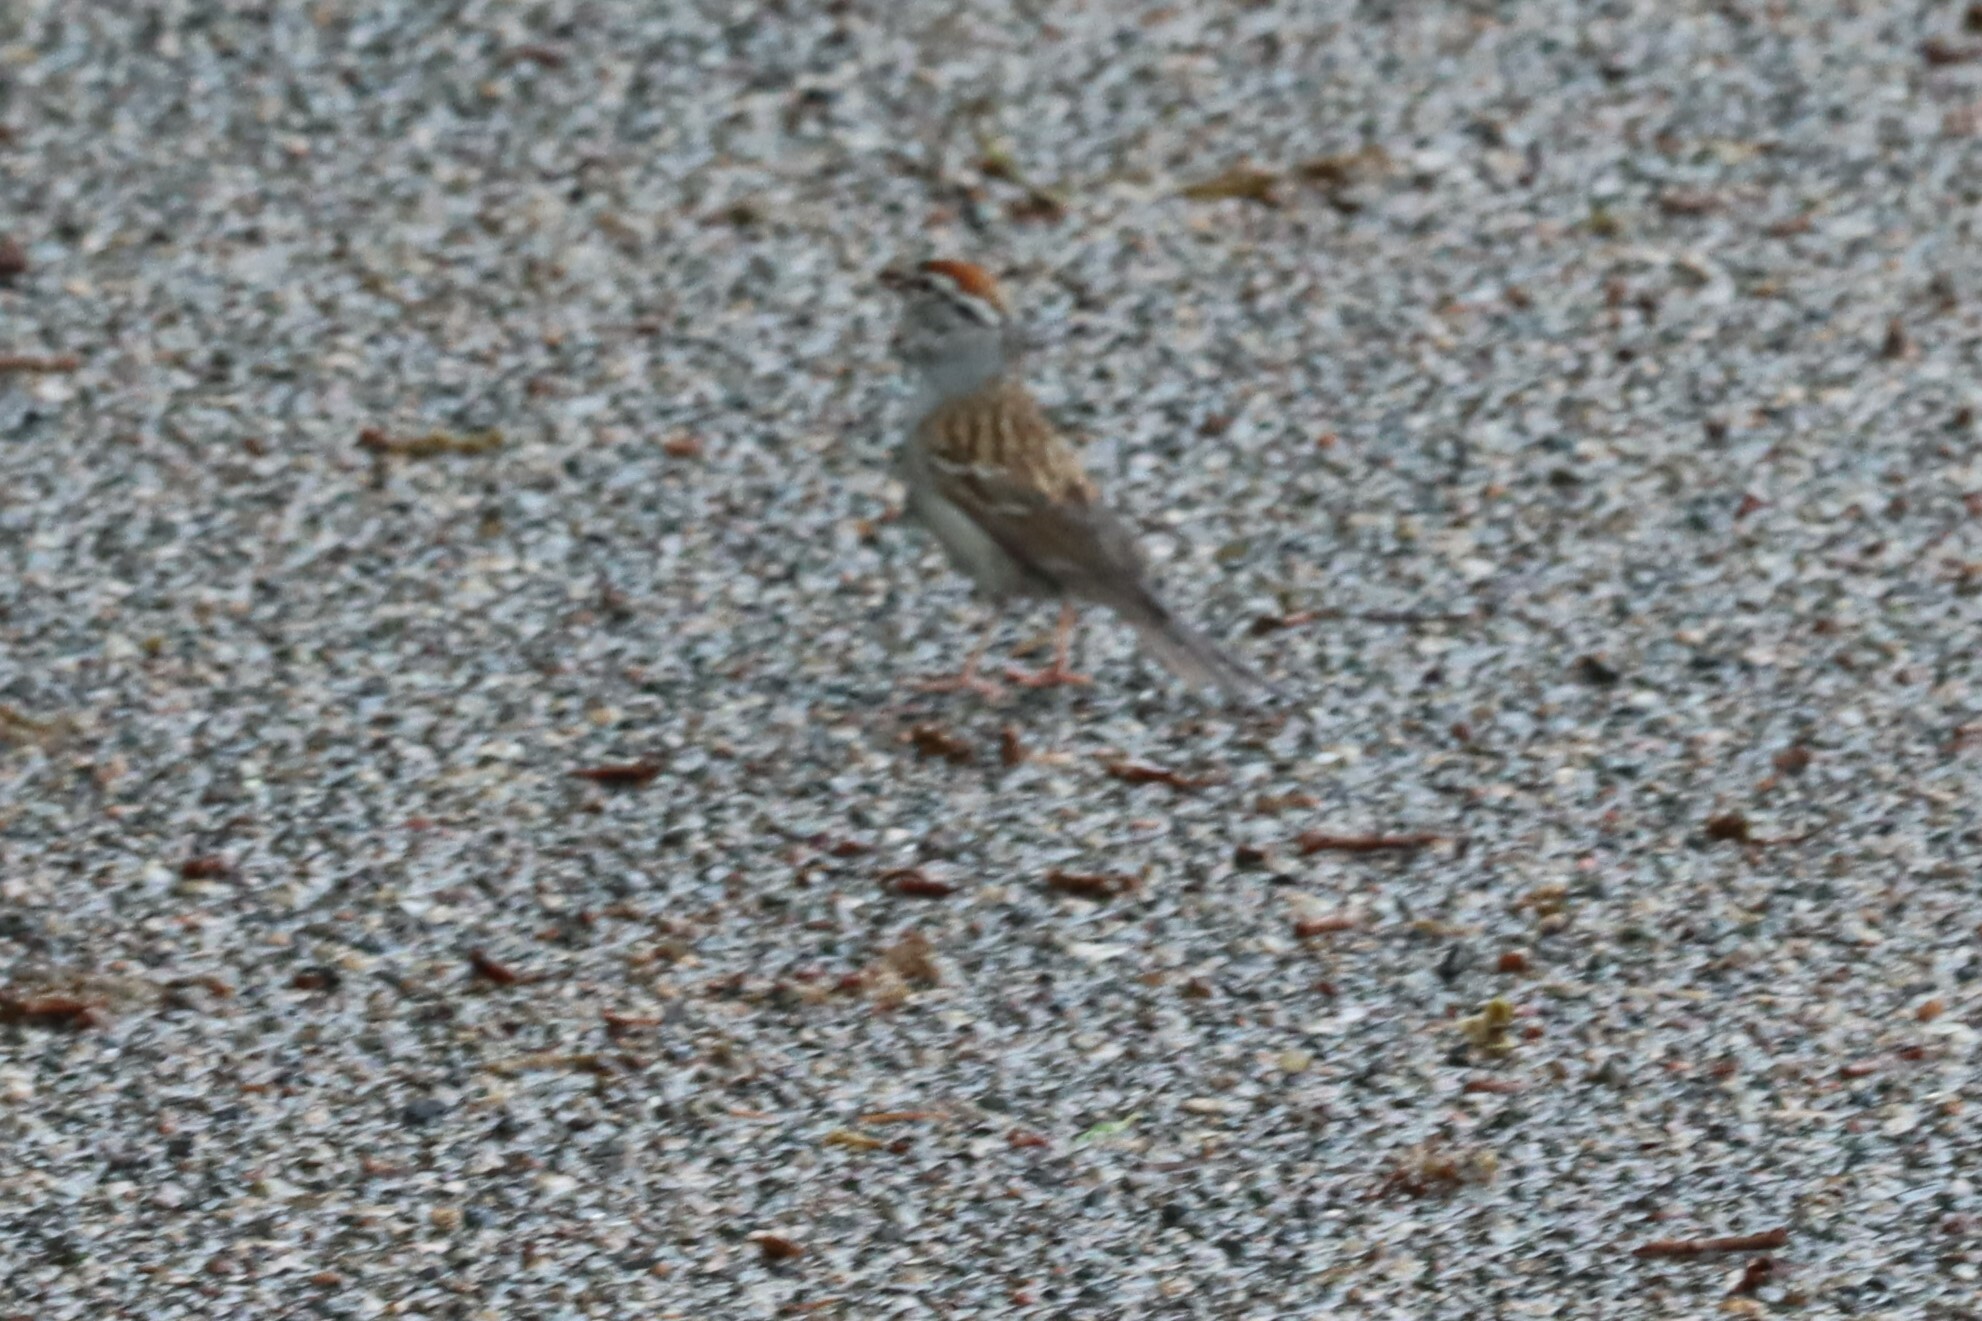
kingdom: Animalia
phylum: Chordata
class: Aves
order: Passeriformes
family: Passerellidae
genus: Spizella
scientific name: Spizella passerina
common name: Chipping sparrow
